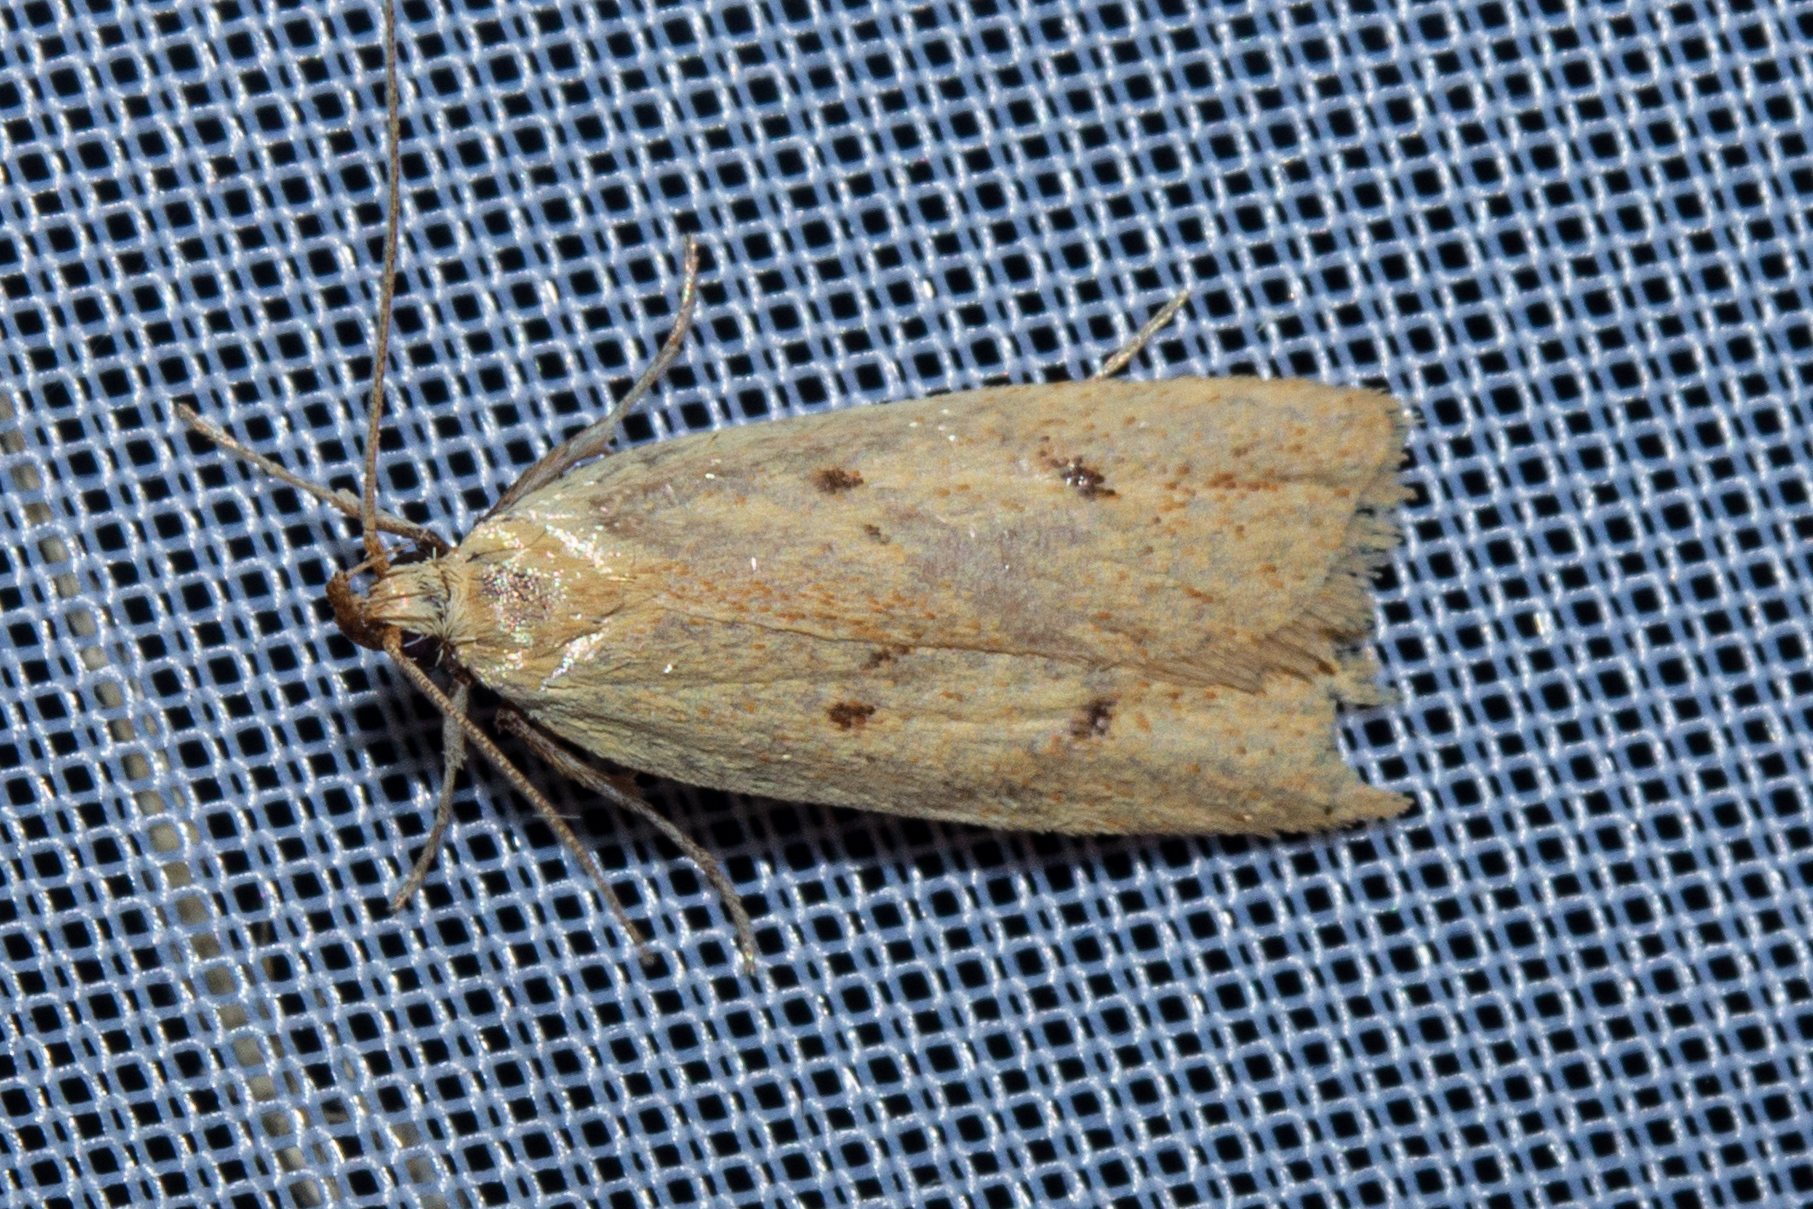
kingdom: Animalia
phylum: Arthropoda
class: Insecta
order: Lepidoptera
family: Oecophoridae
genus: Gymnobathra
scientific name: Gymnobathra sarcoxantha
